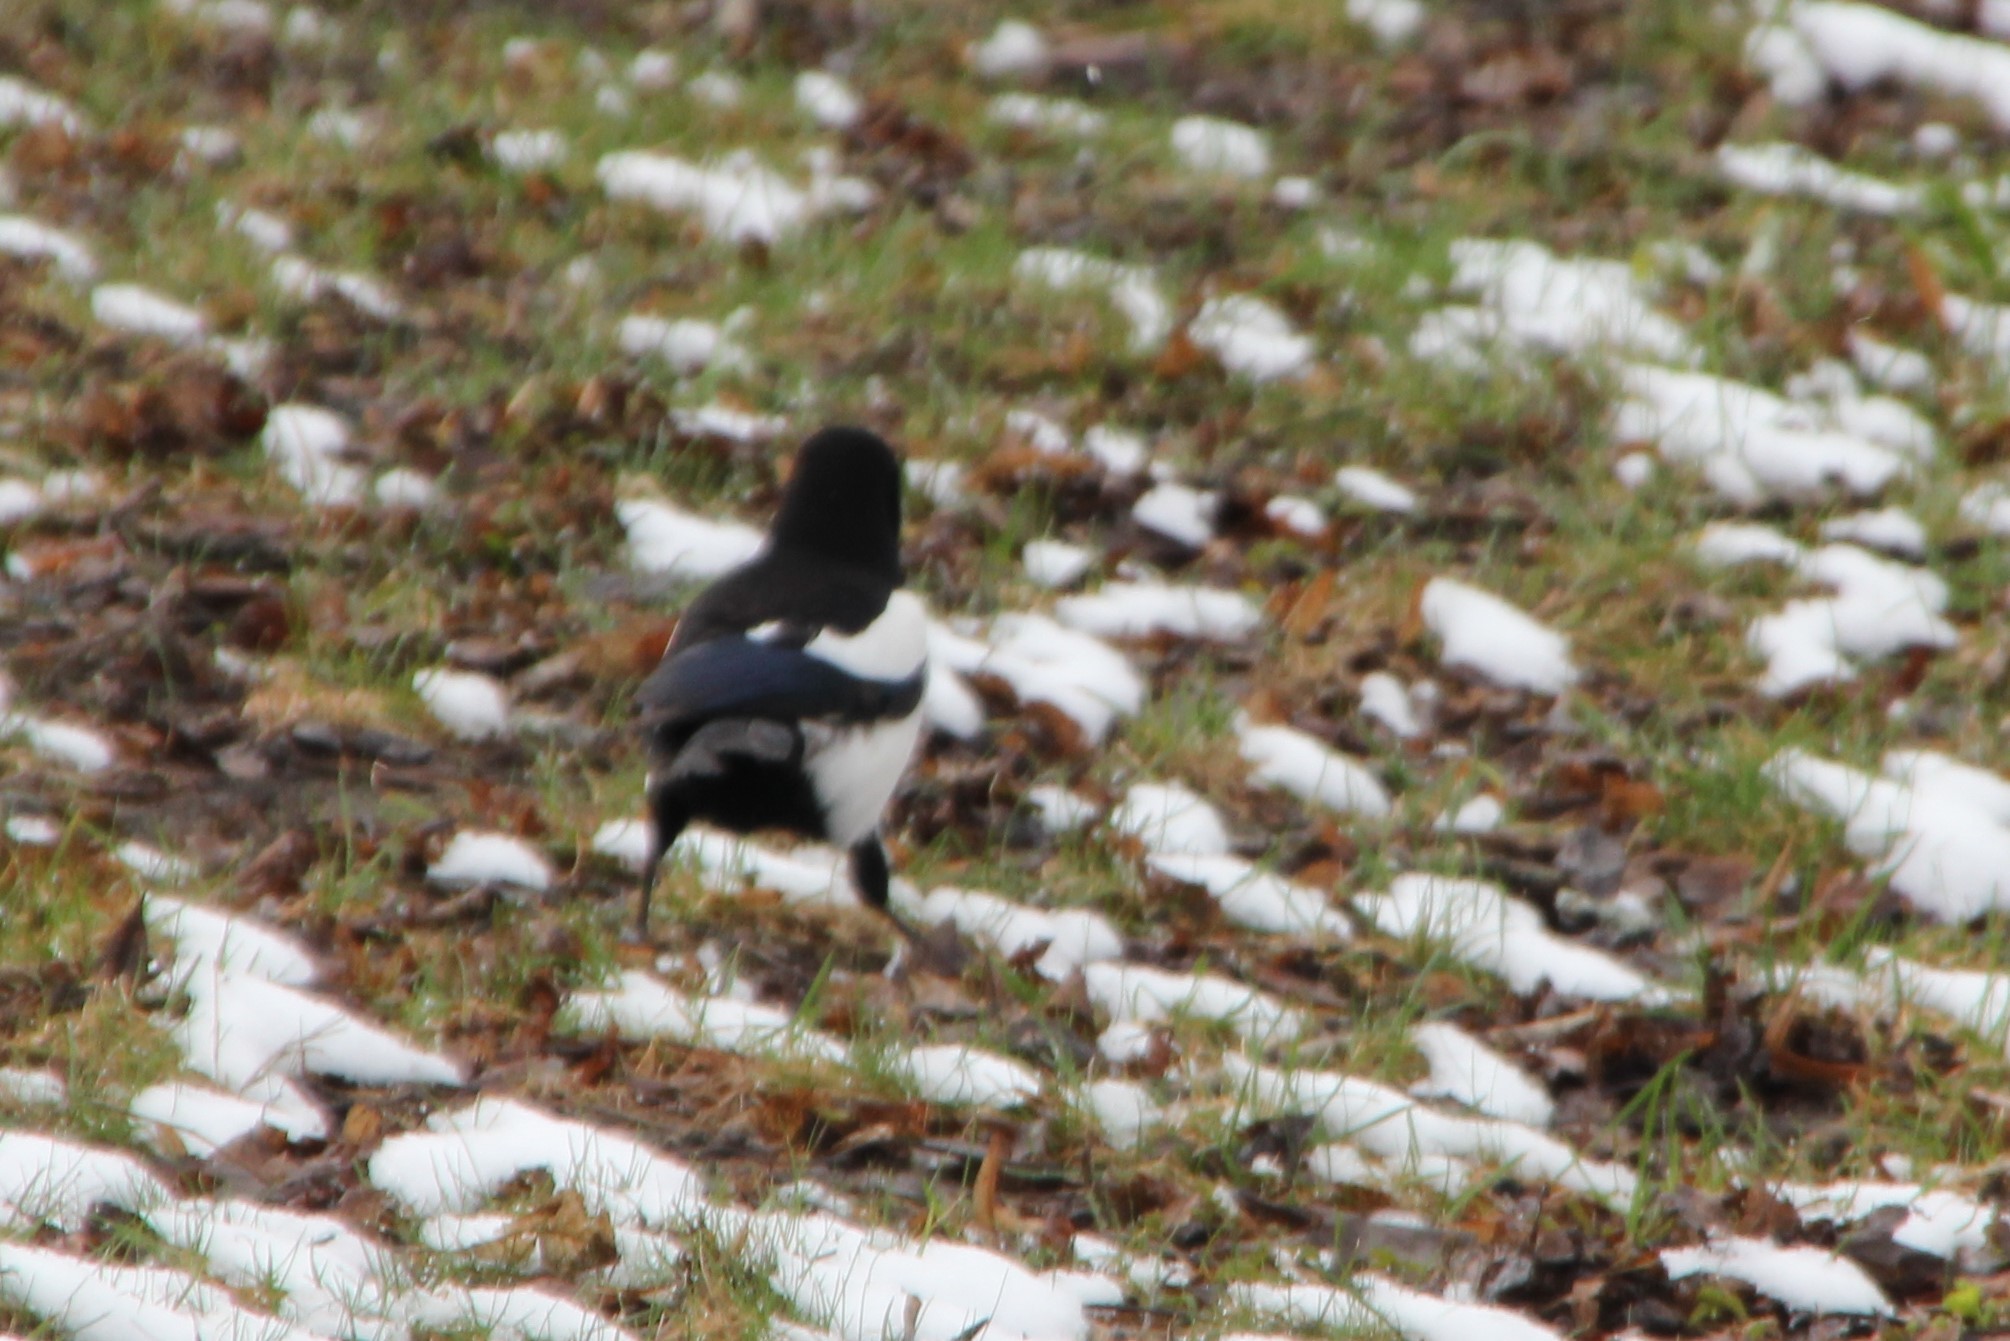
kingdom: Animalia
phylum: Chordata
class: Aves
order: Passeriformes
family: Corvidae
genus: Pica
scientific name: Pica pica
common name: Eurasian magpie
